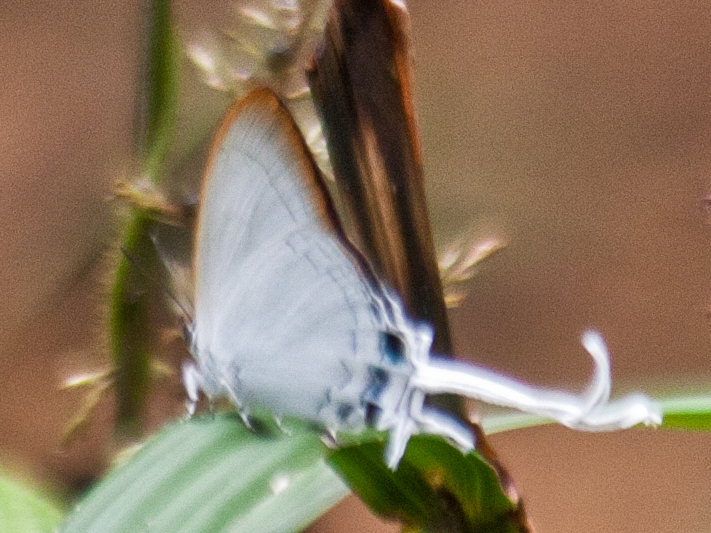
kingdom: Animalia
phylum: Arthropoda
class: Insecta
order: Lepidoptera
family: Lycaenidae
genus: Cheritra
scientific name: Cheritra freja
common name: Common imperial
